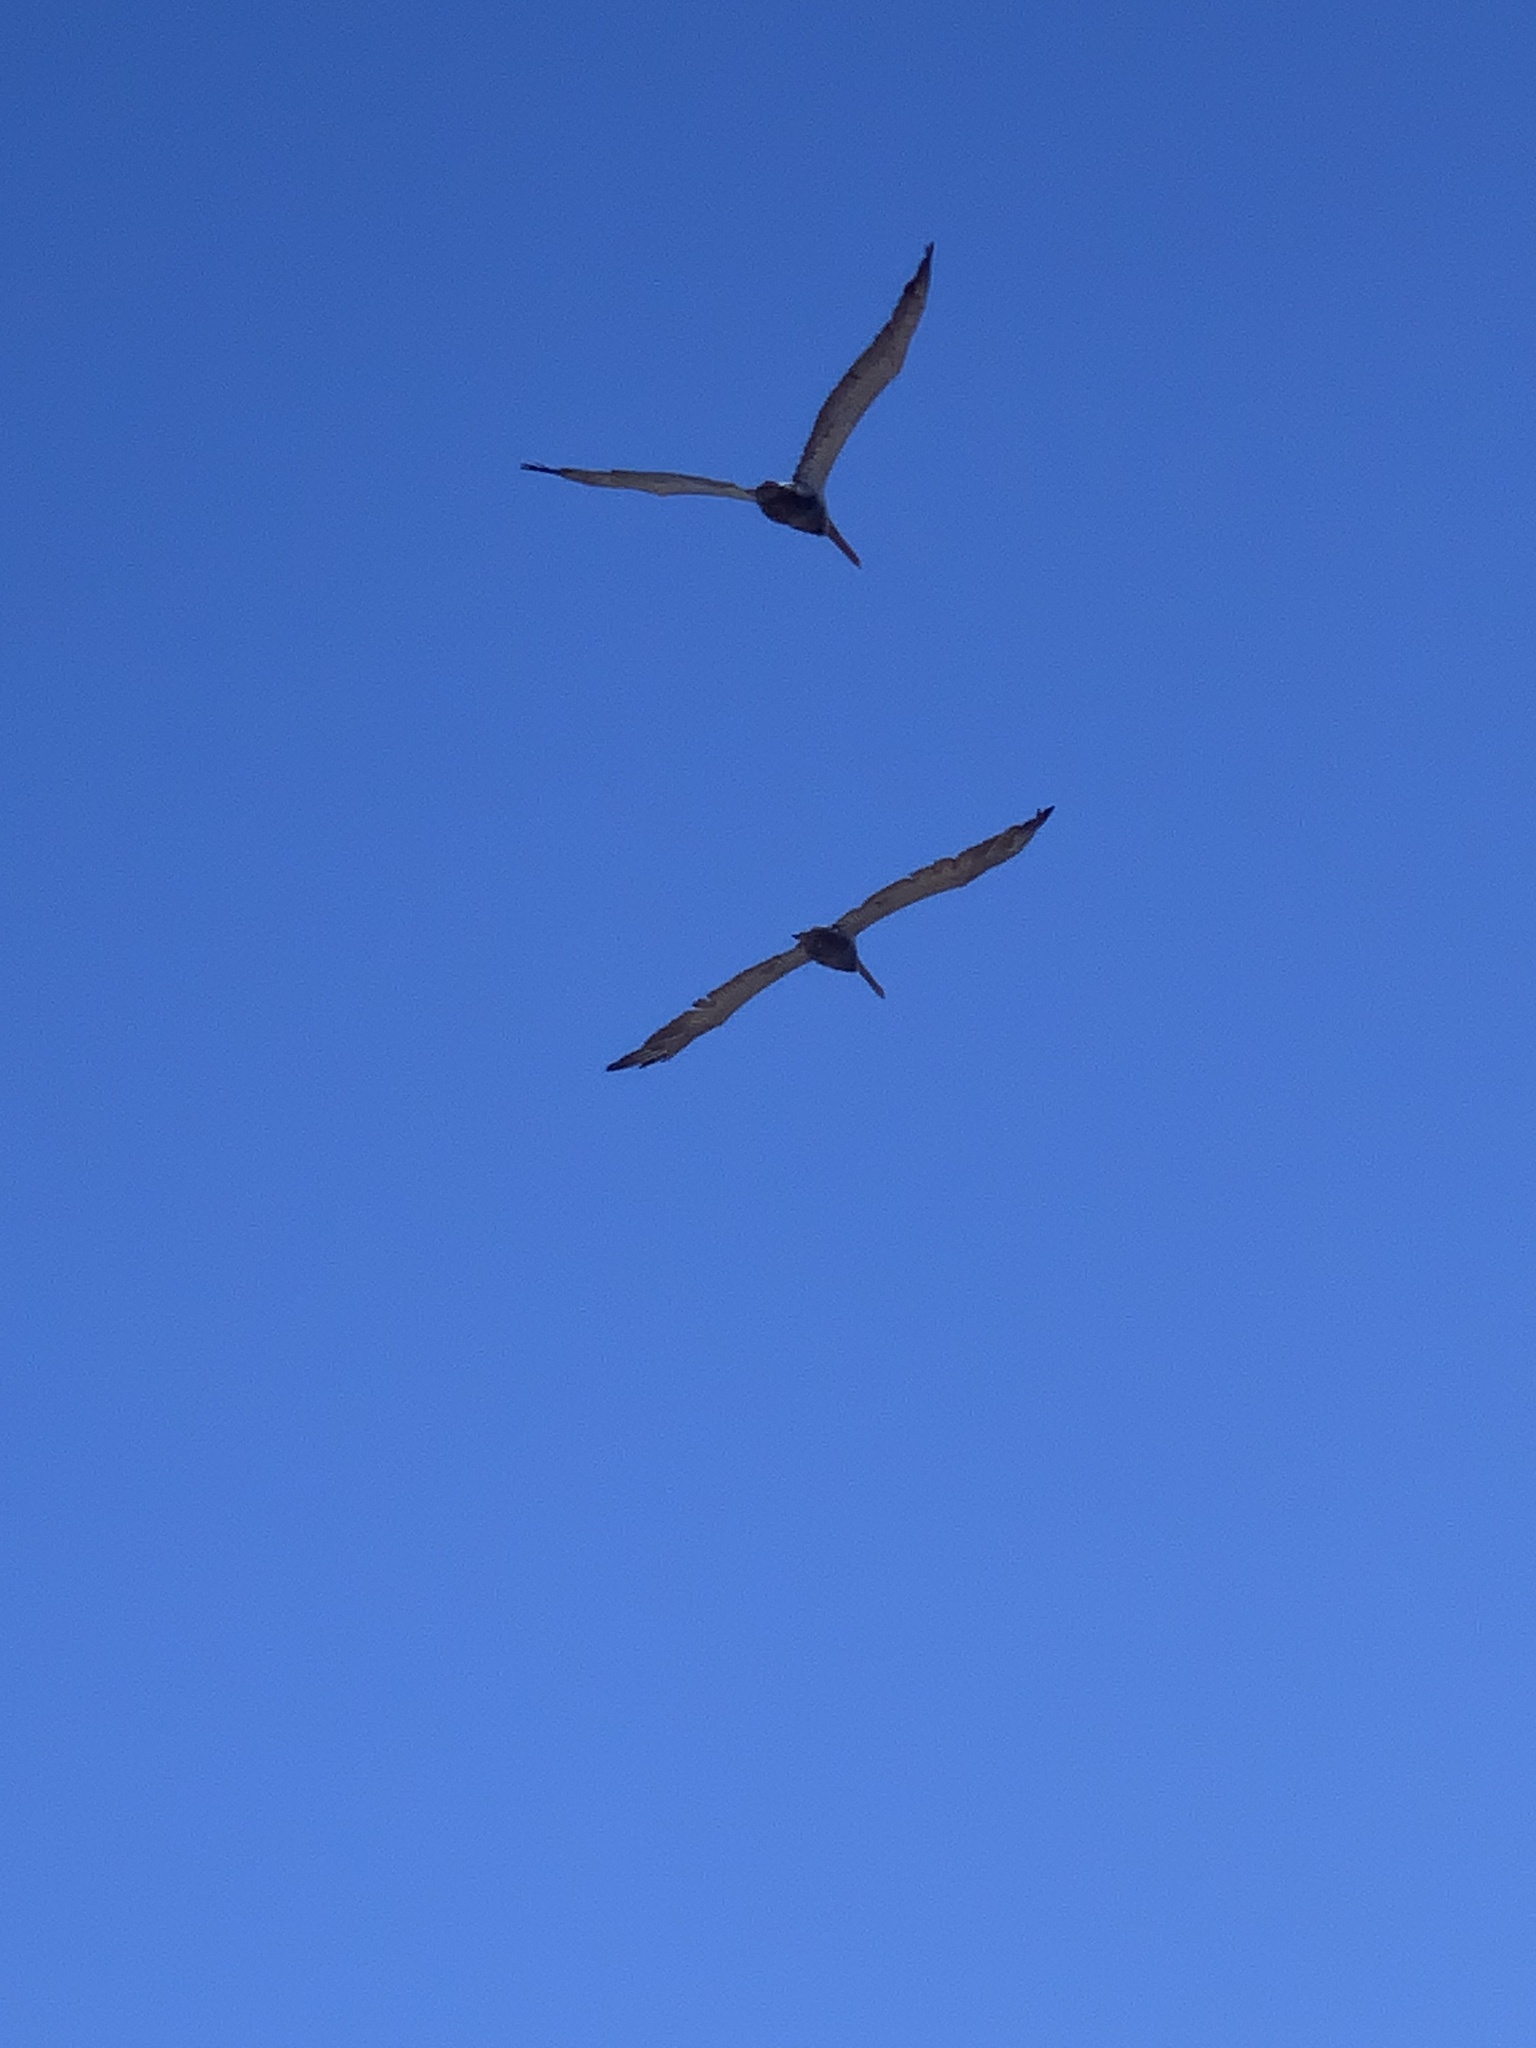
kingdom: Animalia
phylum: Chordata
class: Aves
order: Pelecaniformes
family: Pelecanidae
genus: Pelecanus
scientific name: Pelecanus occidentalis
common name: Brown pelican
